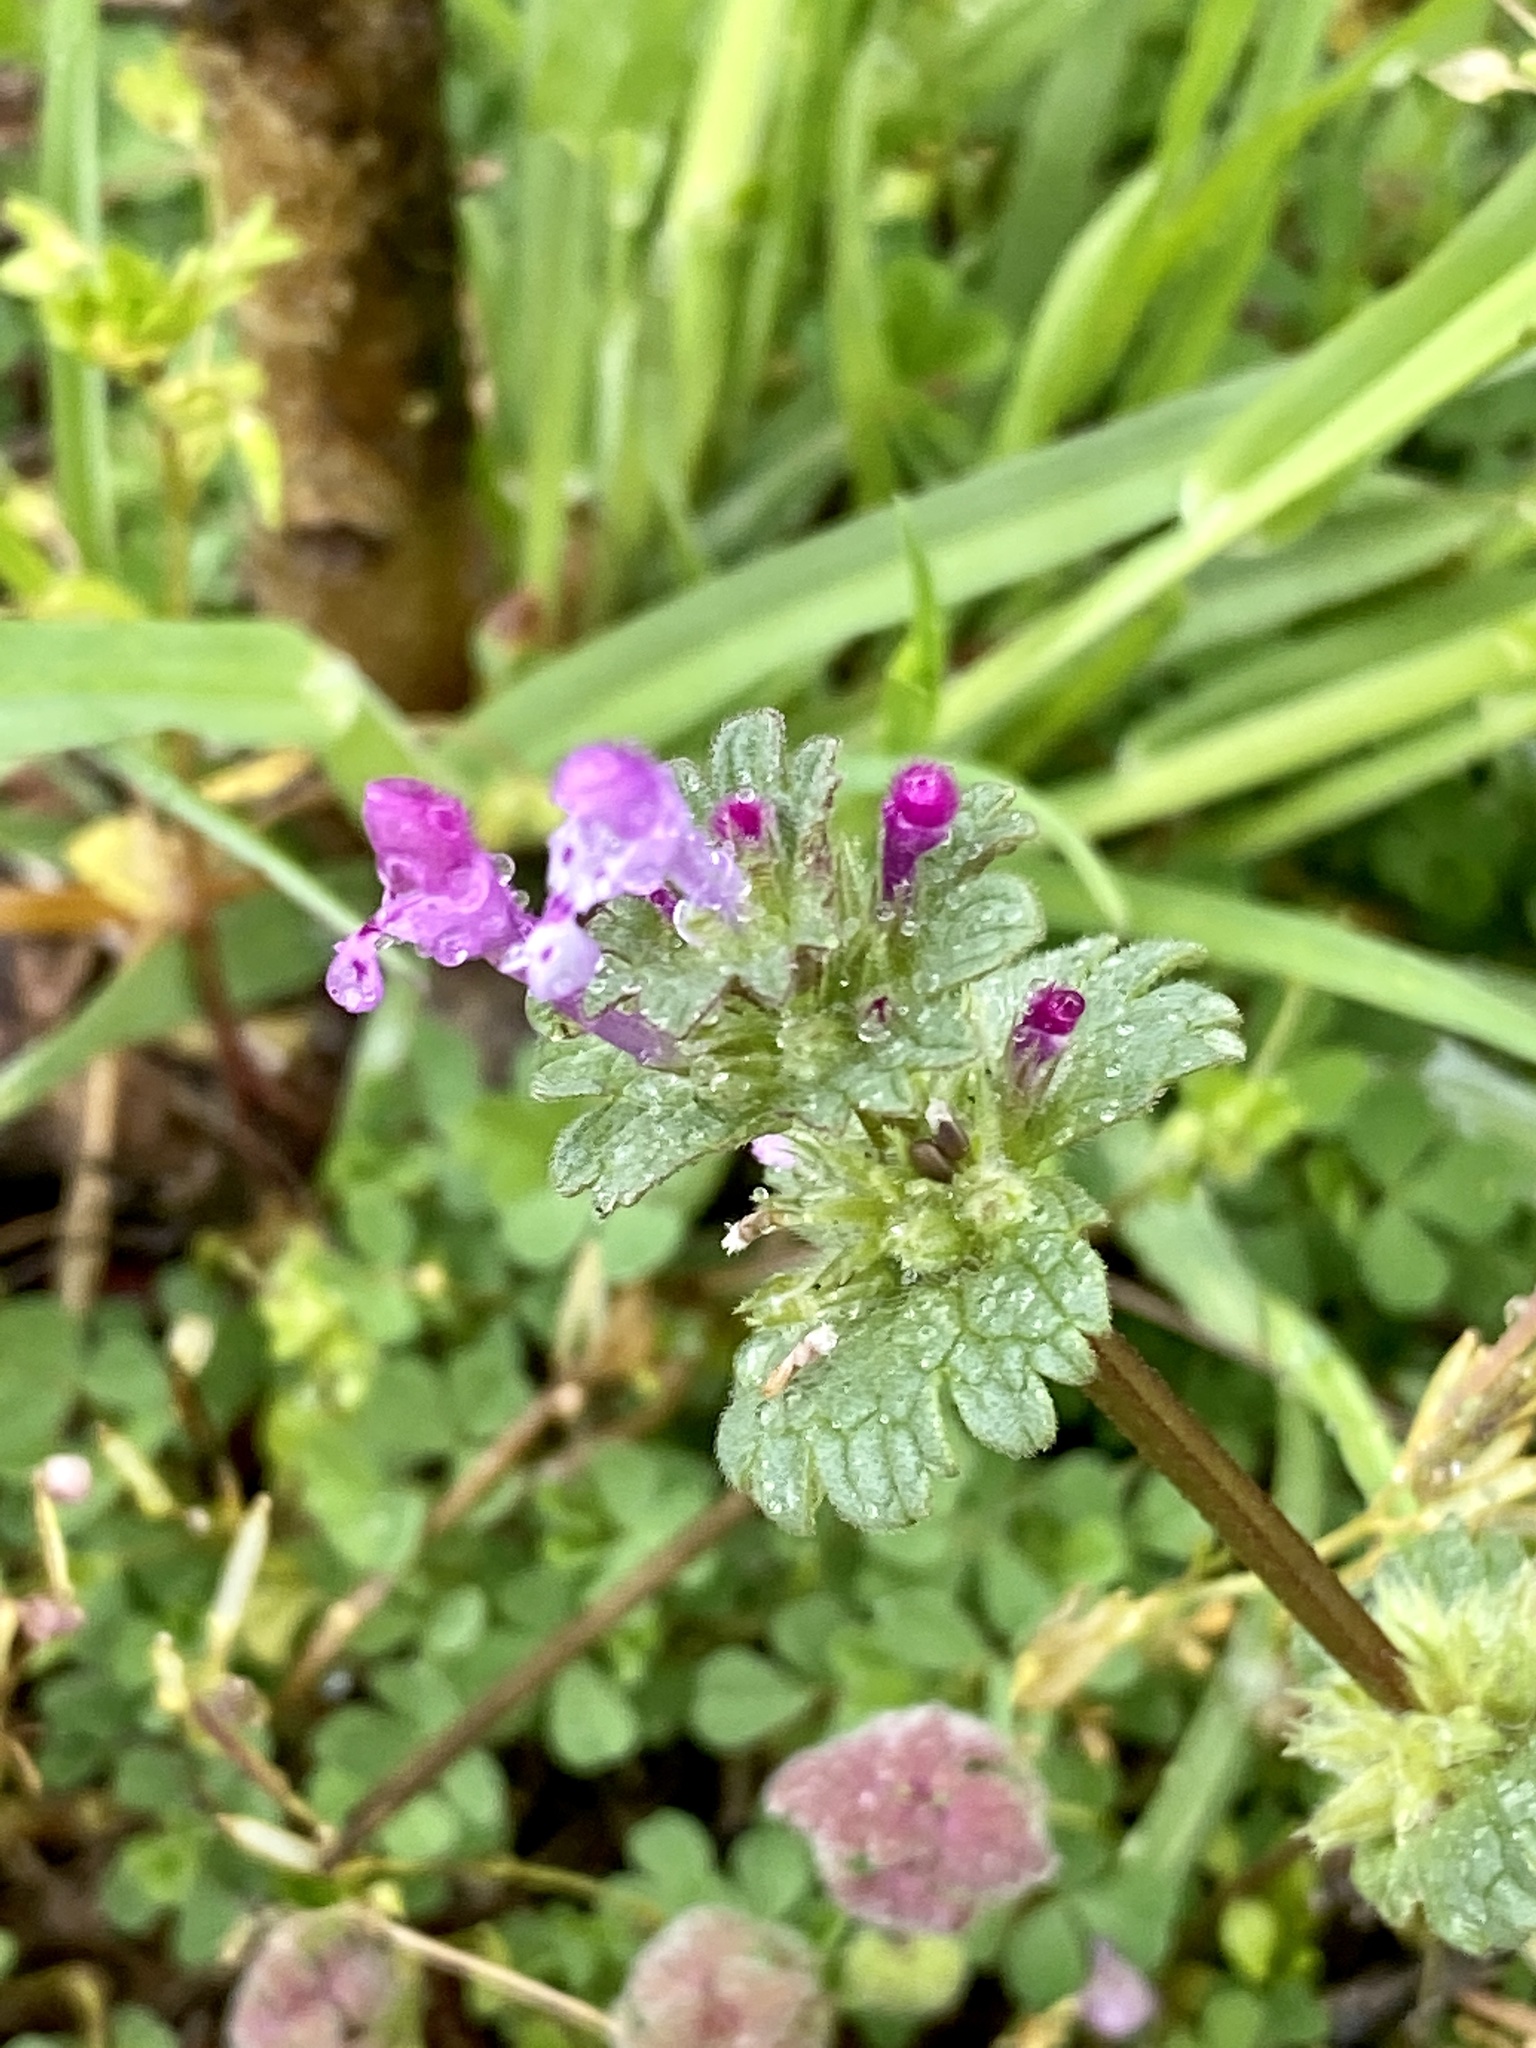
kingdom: Plantae
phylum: Tracheophyta
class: Magnoliopsida
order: Lamiales
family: Lamiaceae
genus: Lamium
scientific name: Lamium amplexicaule
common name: Henbit dead-nettle
